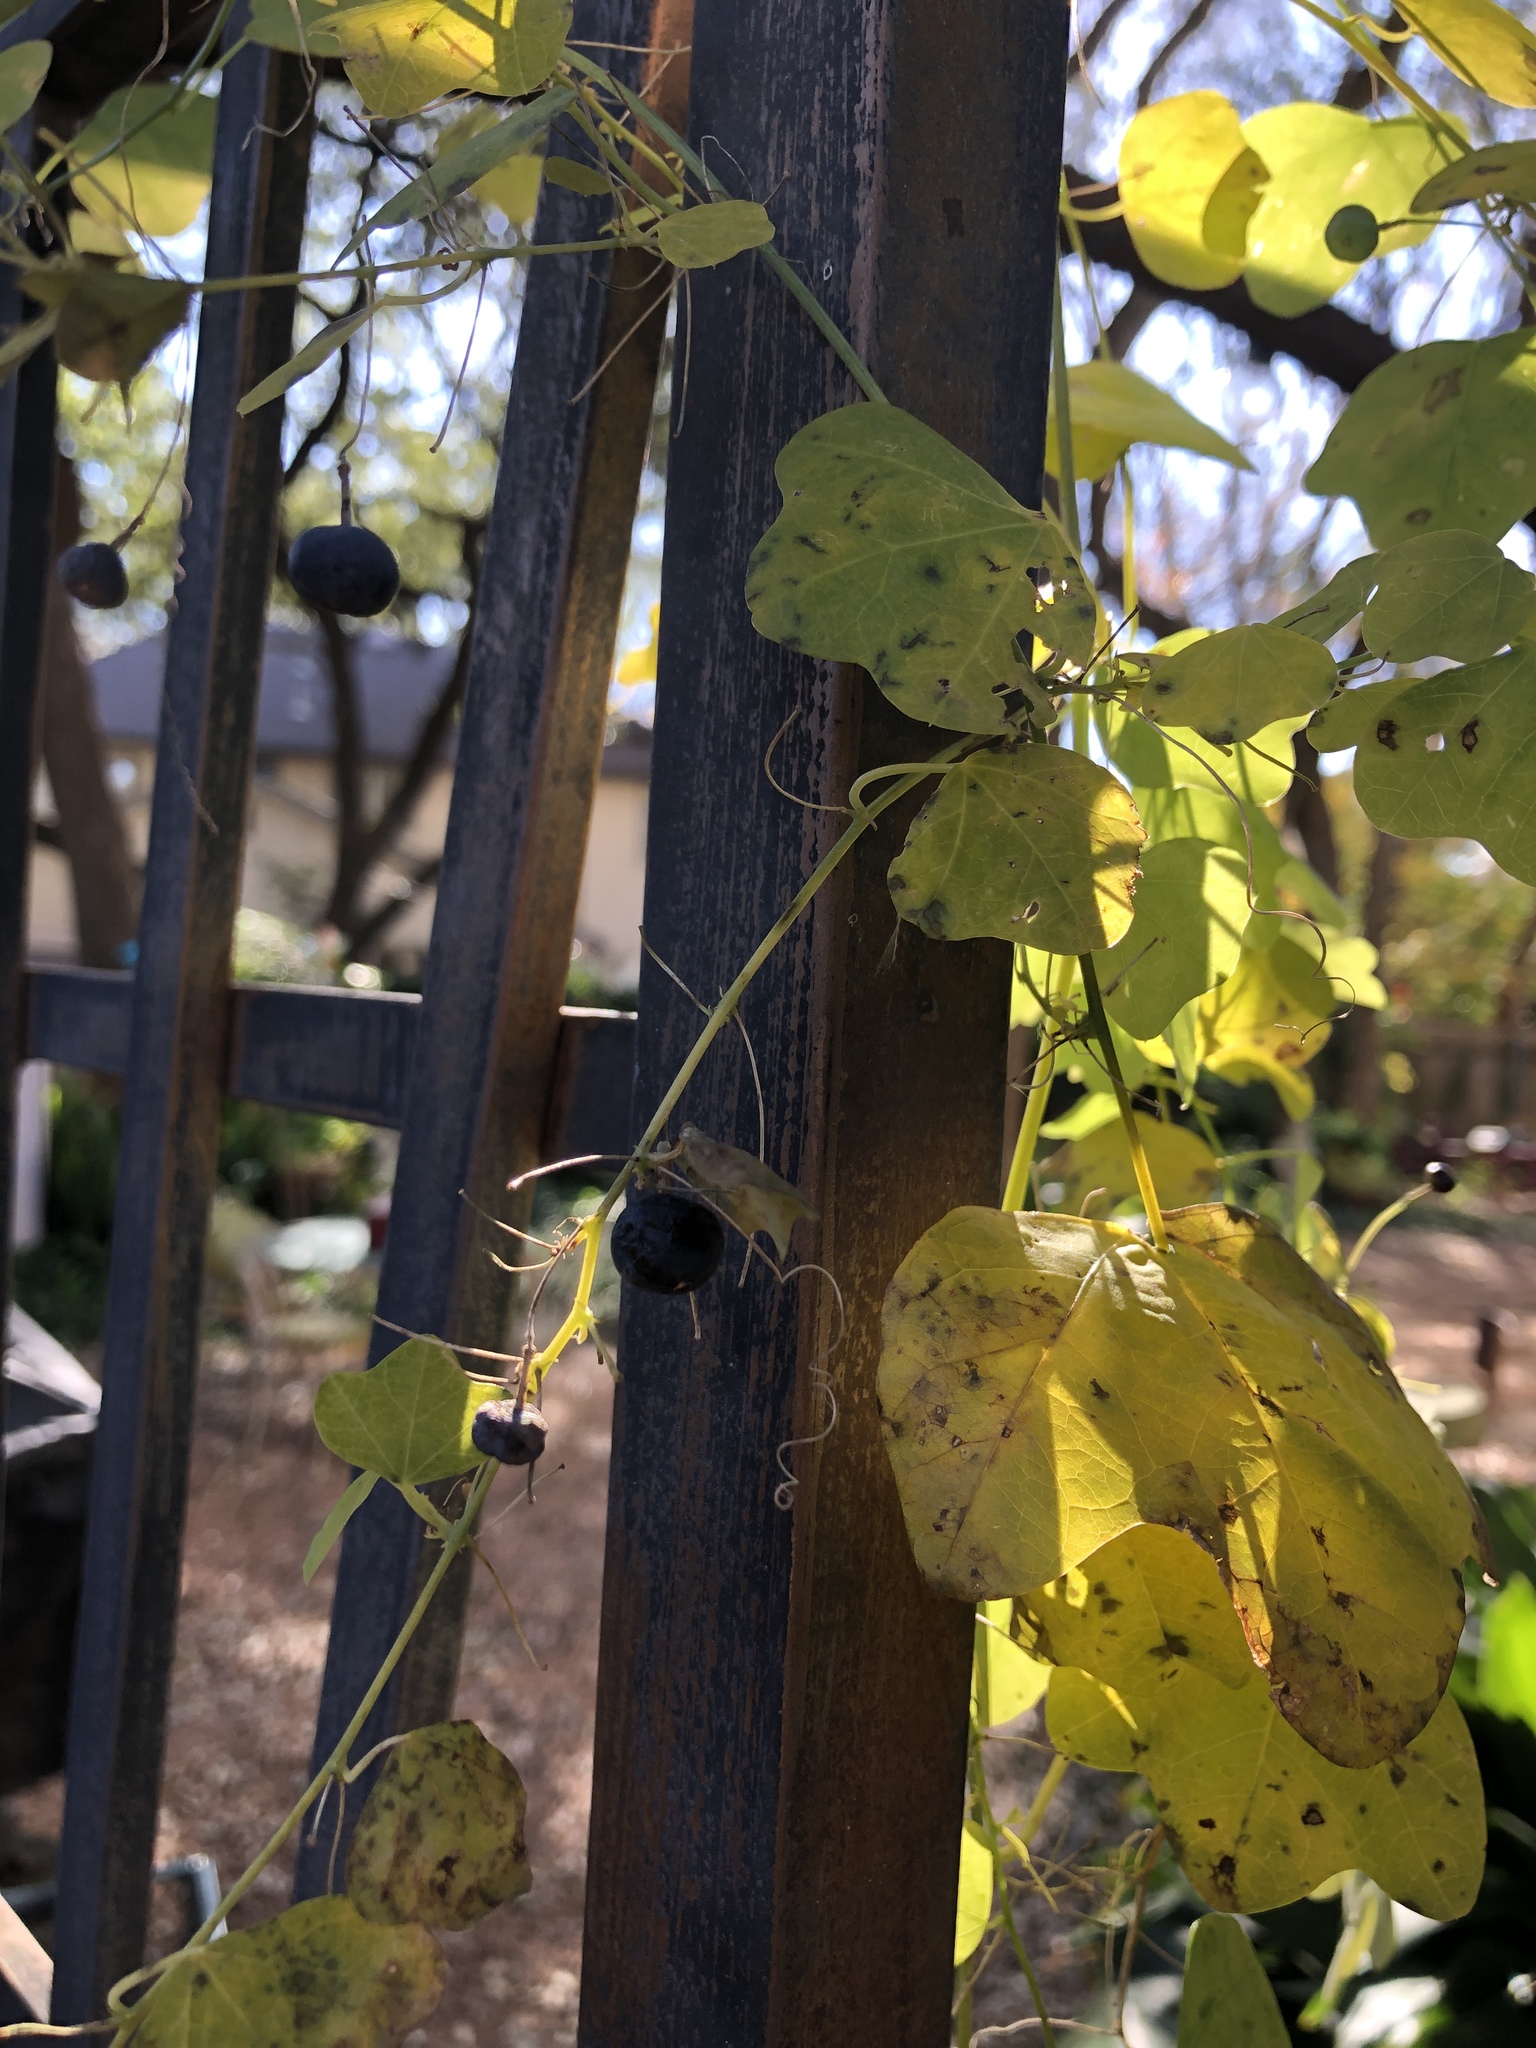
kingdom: Plantae
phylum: Tracheophyta
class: Magnoliopsida
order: Malpighiales
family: Passifloraceae
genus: Passiflora
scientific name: Passiflora lutea
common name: Yellow passionflower
